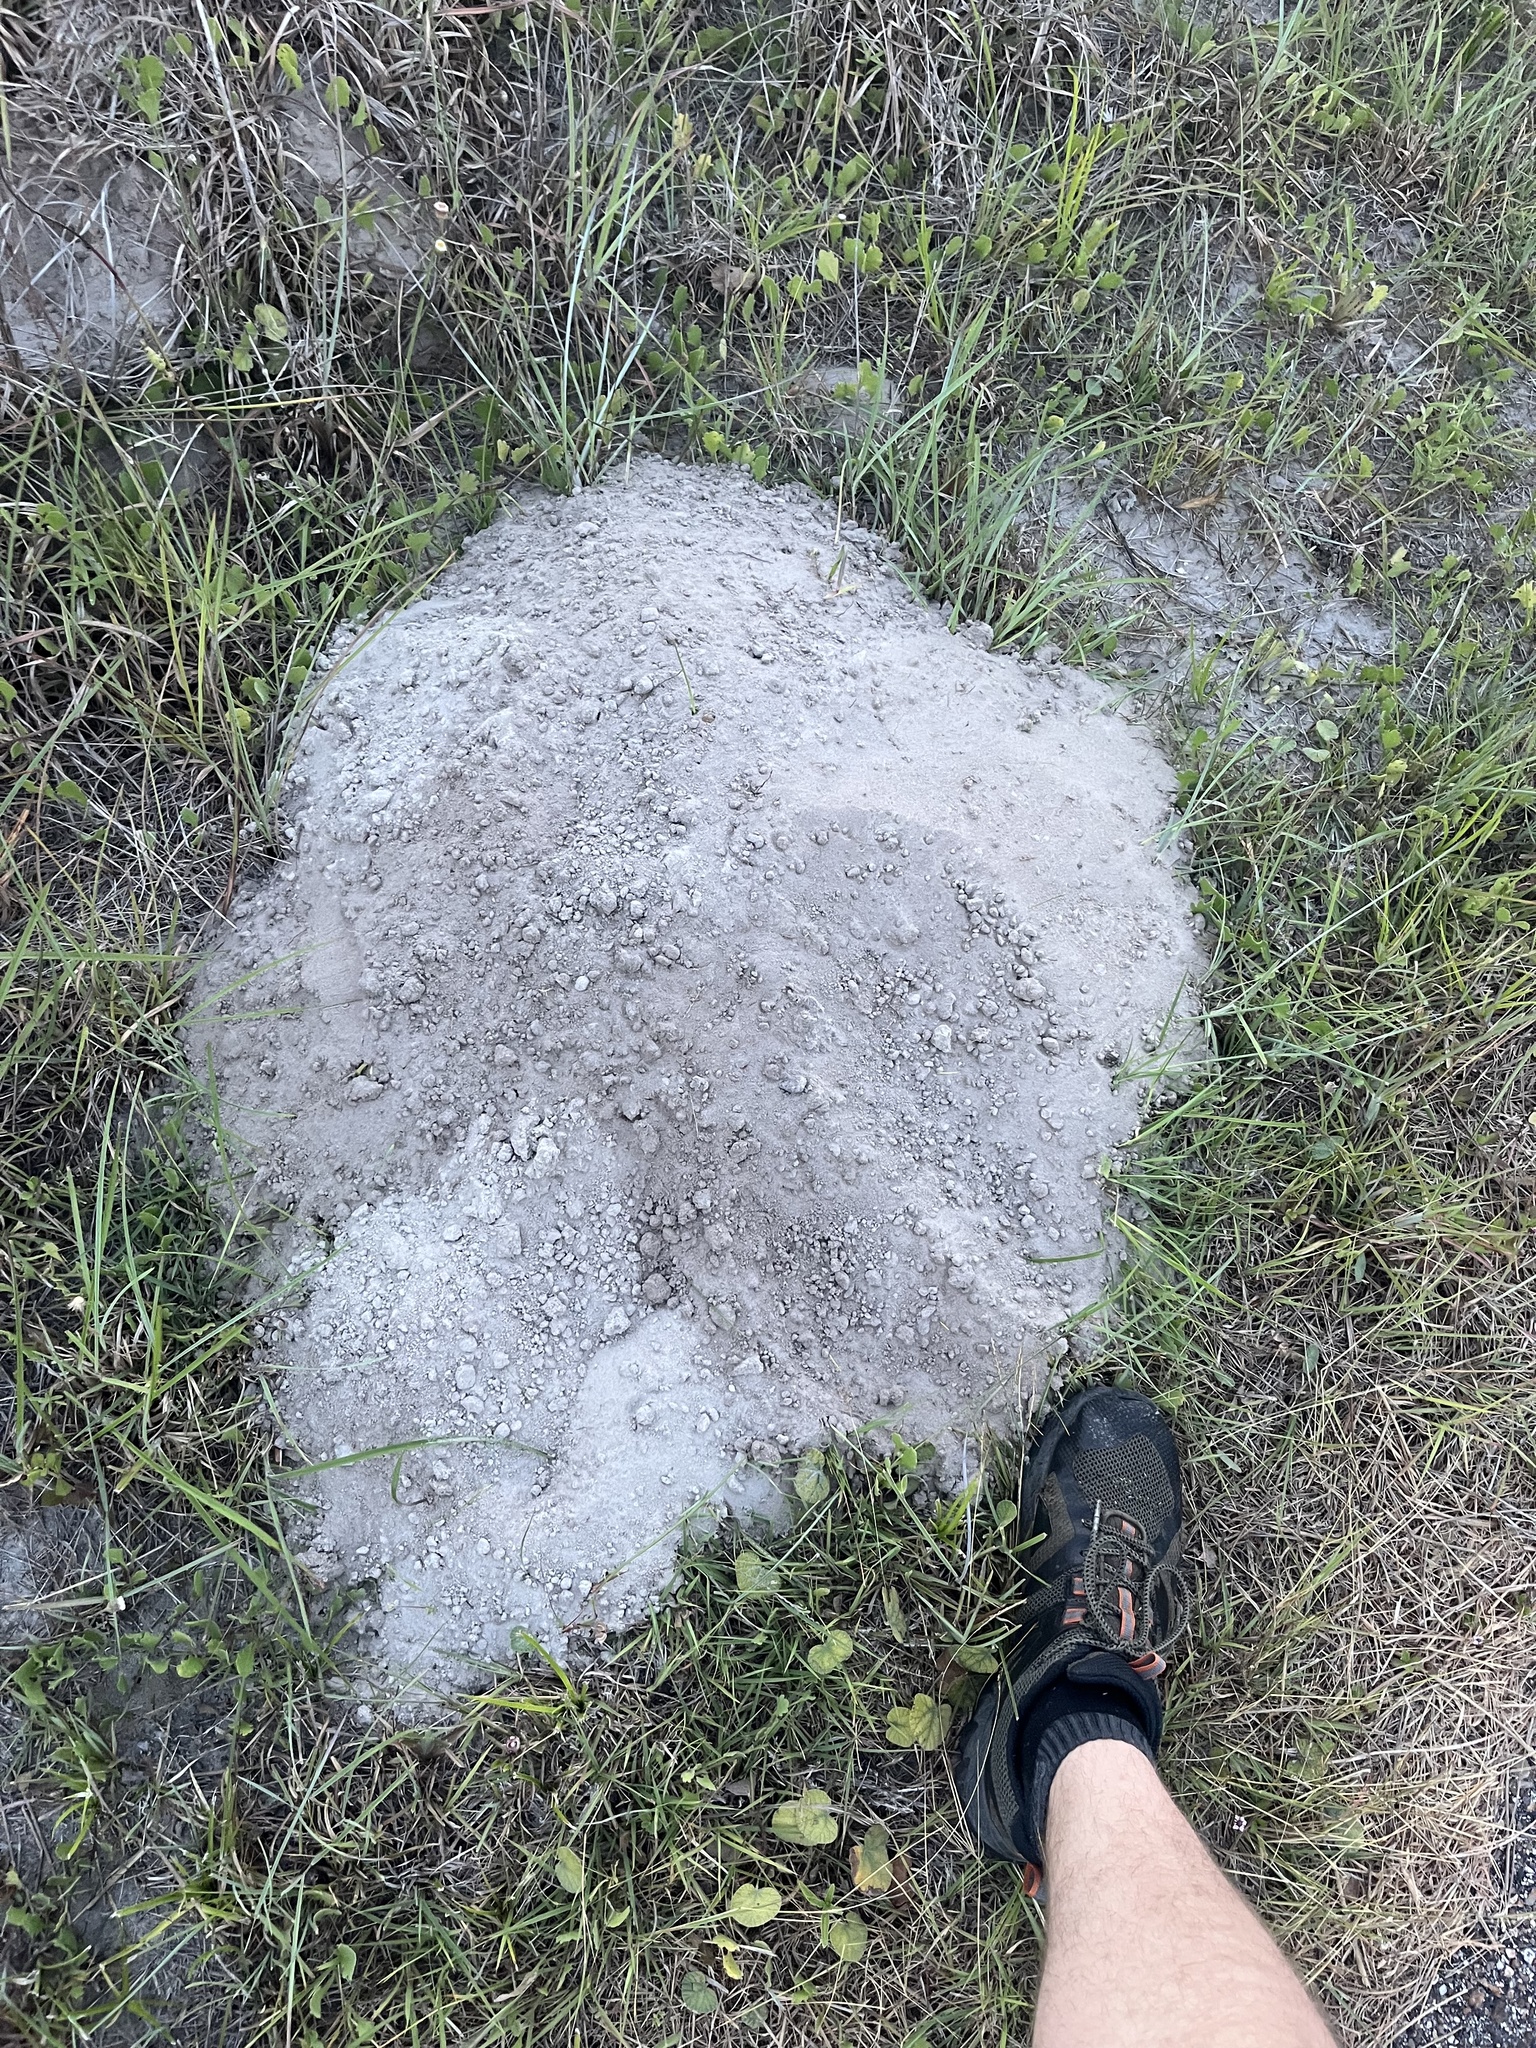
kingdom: Animalia
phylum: Chordata
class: Mammalia
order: Rodentia
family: Geomyidae
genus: Geomys
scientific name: Geomys personatus
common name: Texas pocket gopher
